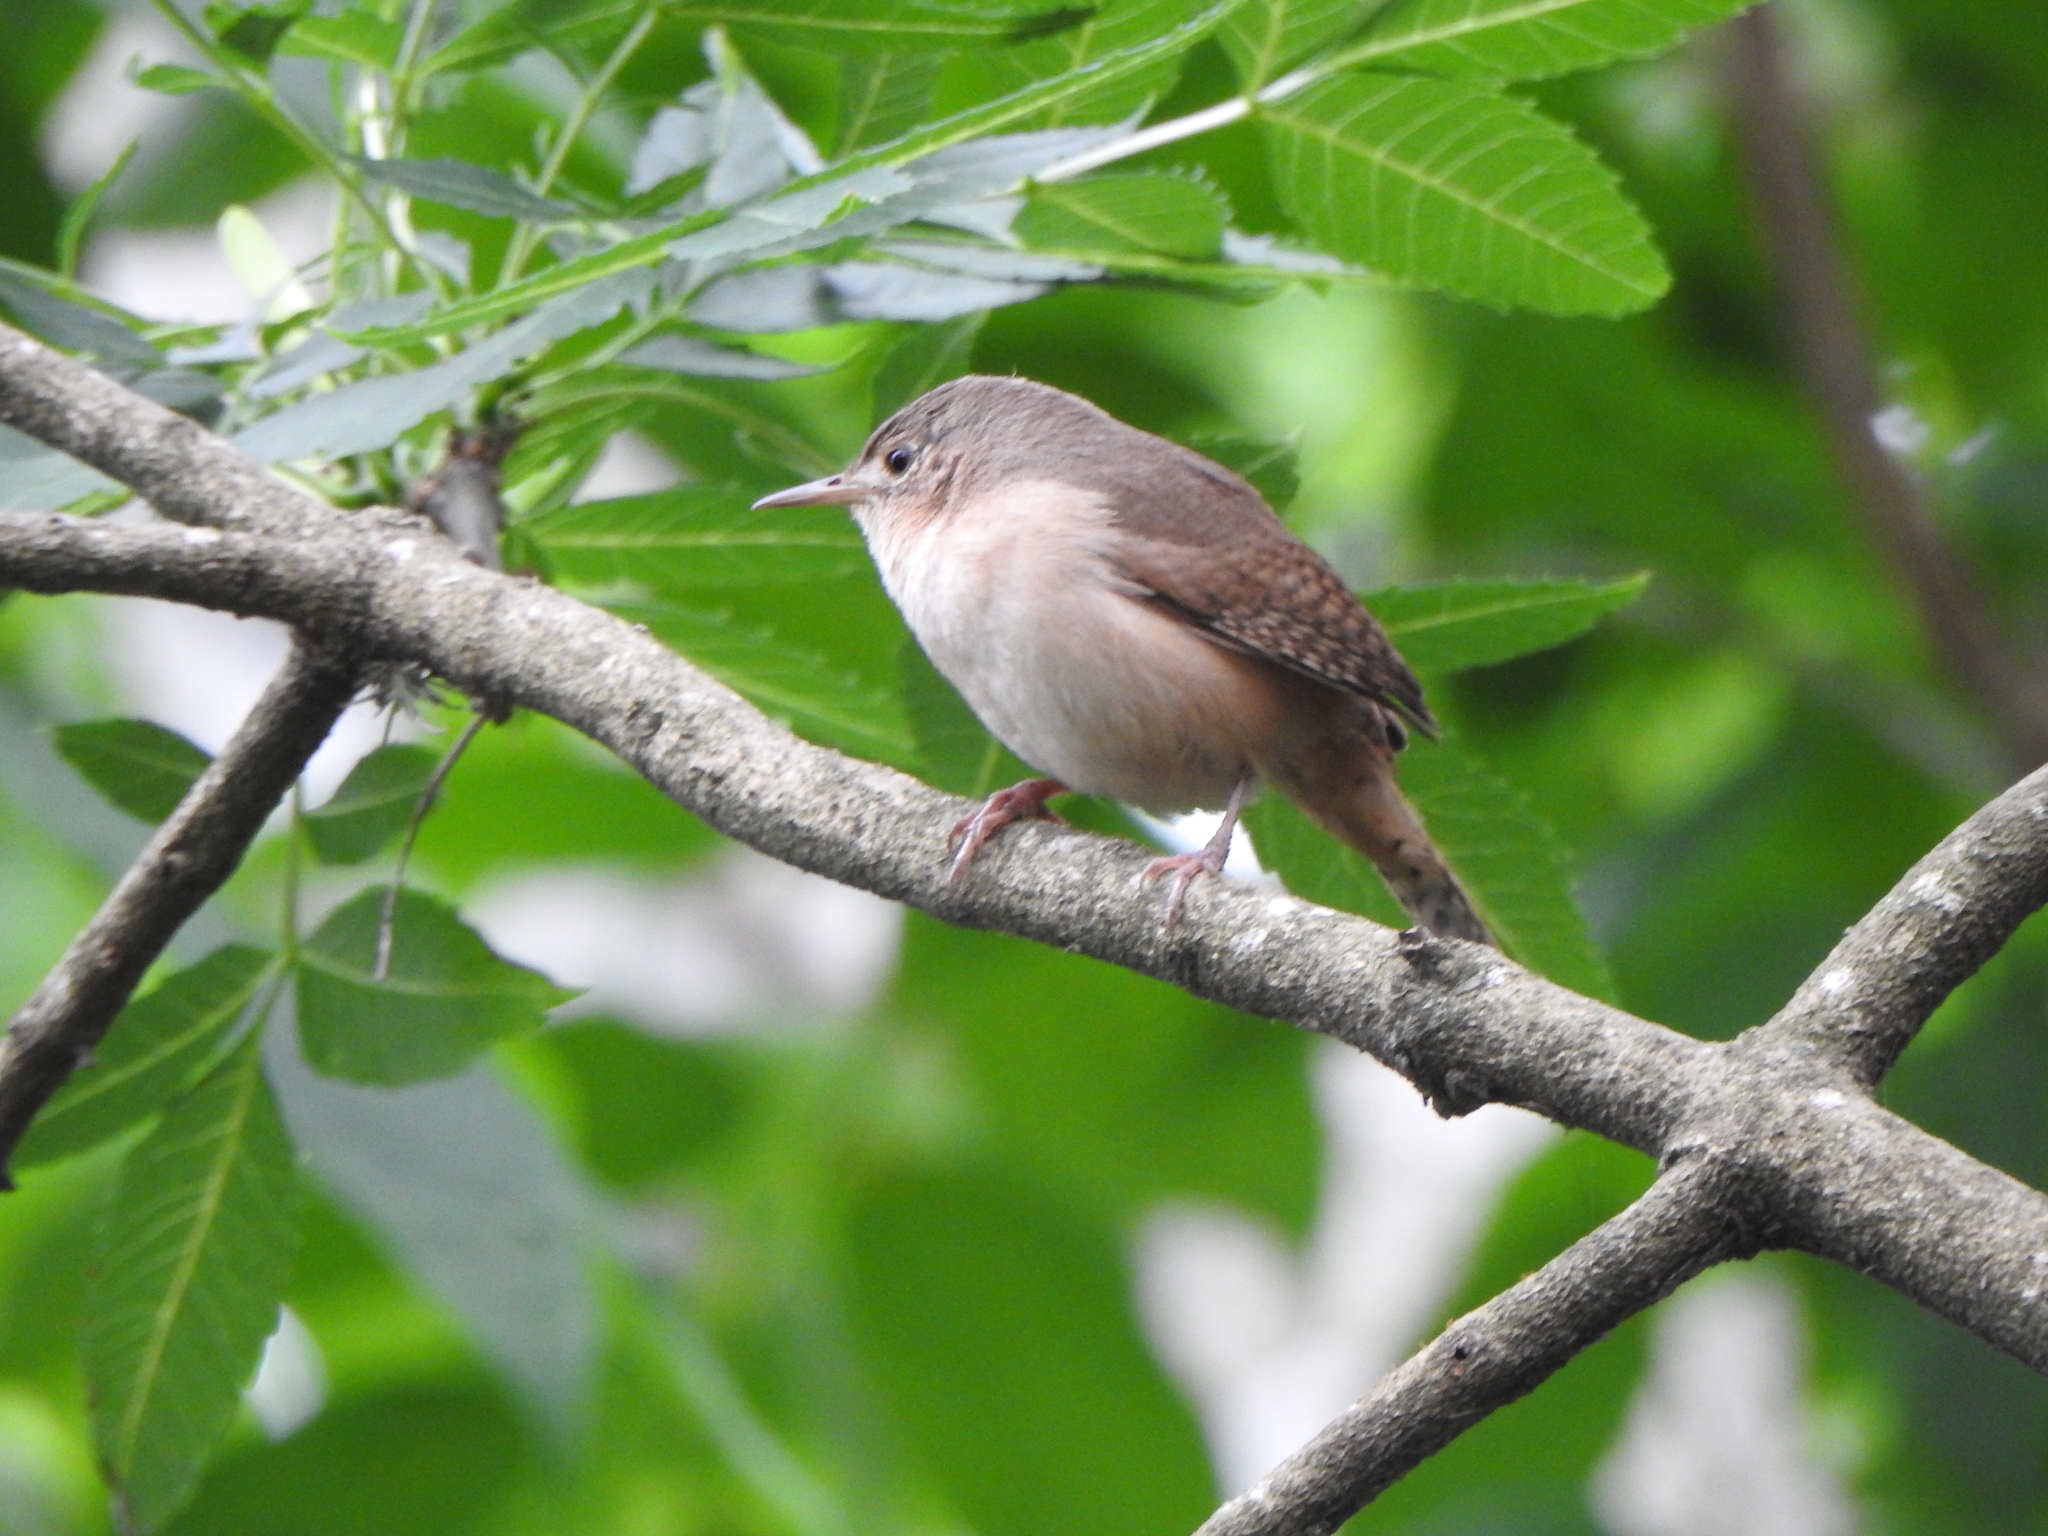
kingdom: Animalia
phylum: Chordata
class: Aves
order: Passeriformes
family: Troglodytidae
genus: Troglodytes
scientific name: Troglodytes aedon
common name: House wren
